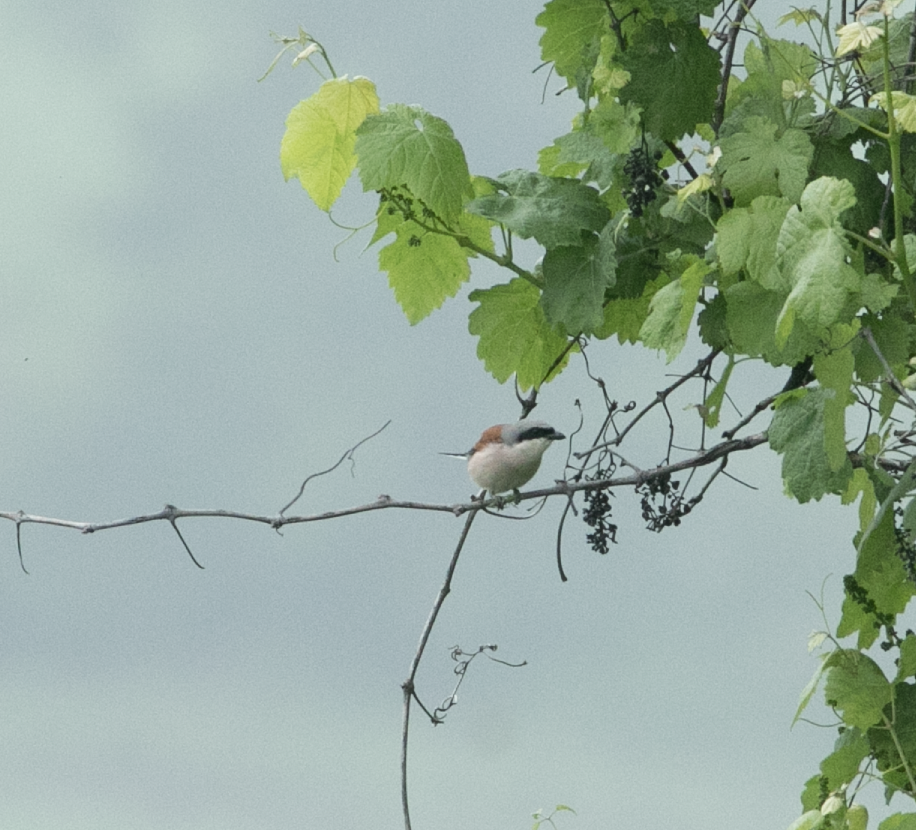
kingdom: Animalia
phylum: Chordata
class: Aves
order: Passeriformes
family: Laniidae
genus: Lanius
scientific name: Lanius collurio
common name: Red-backed shrike
